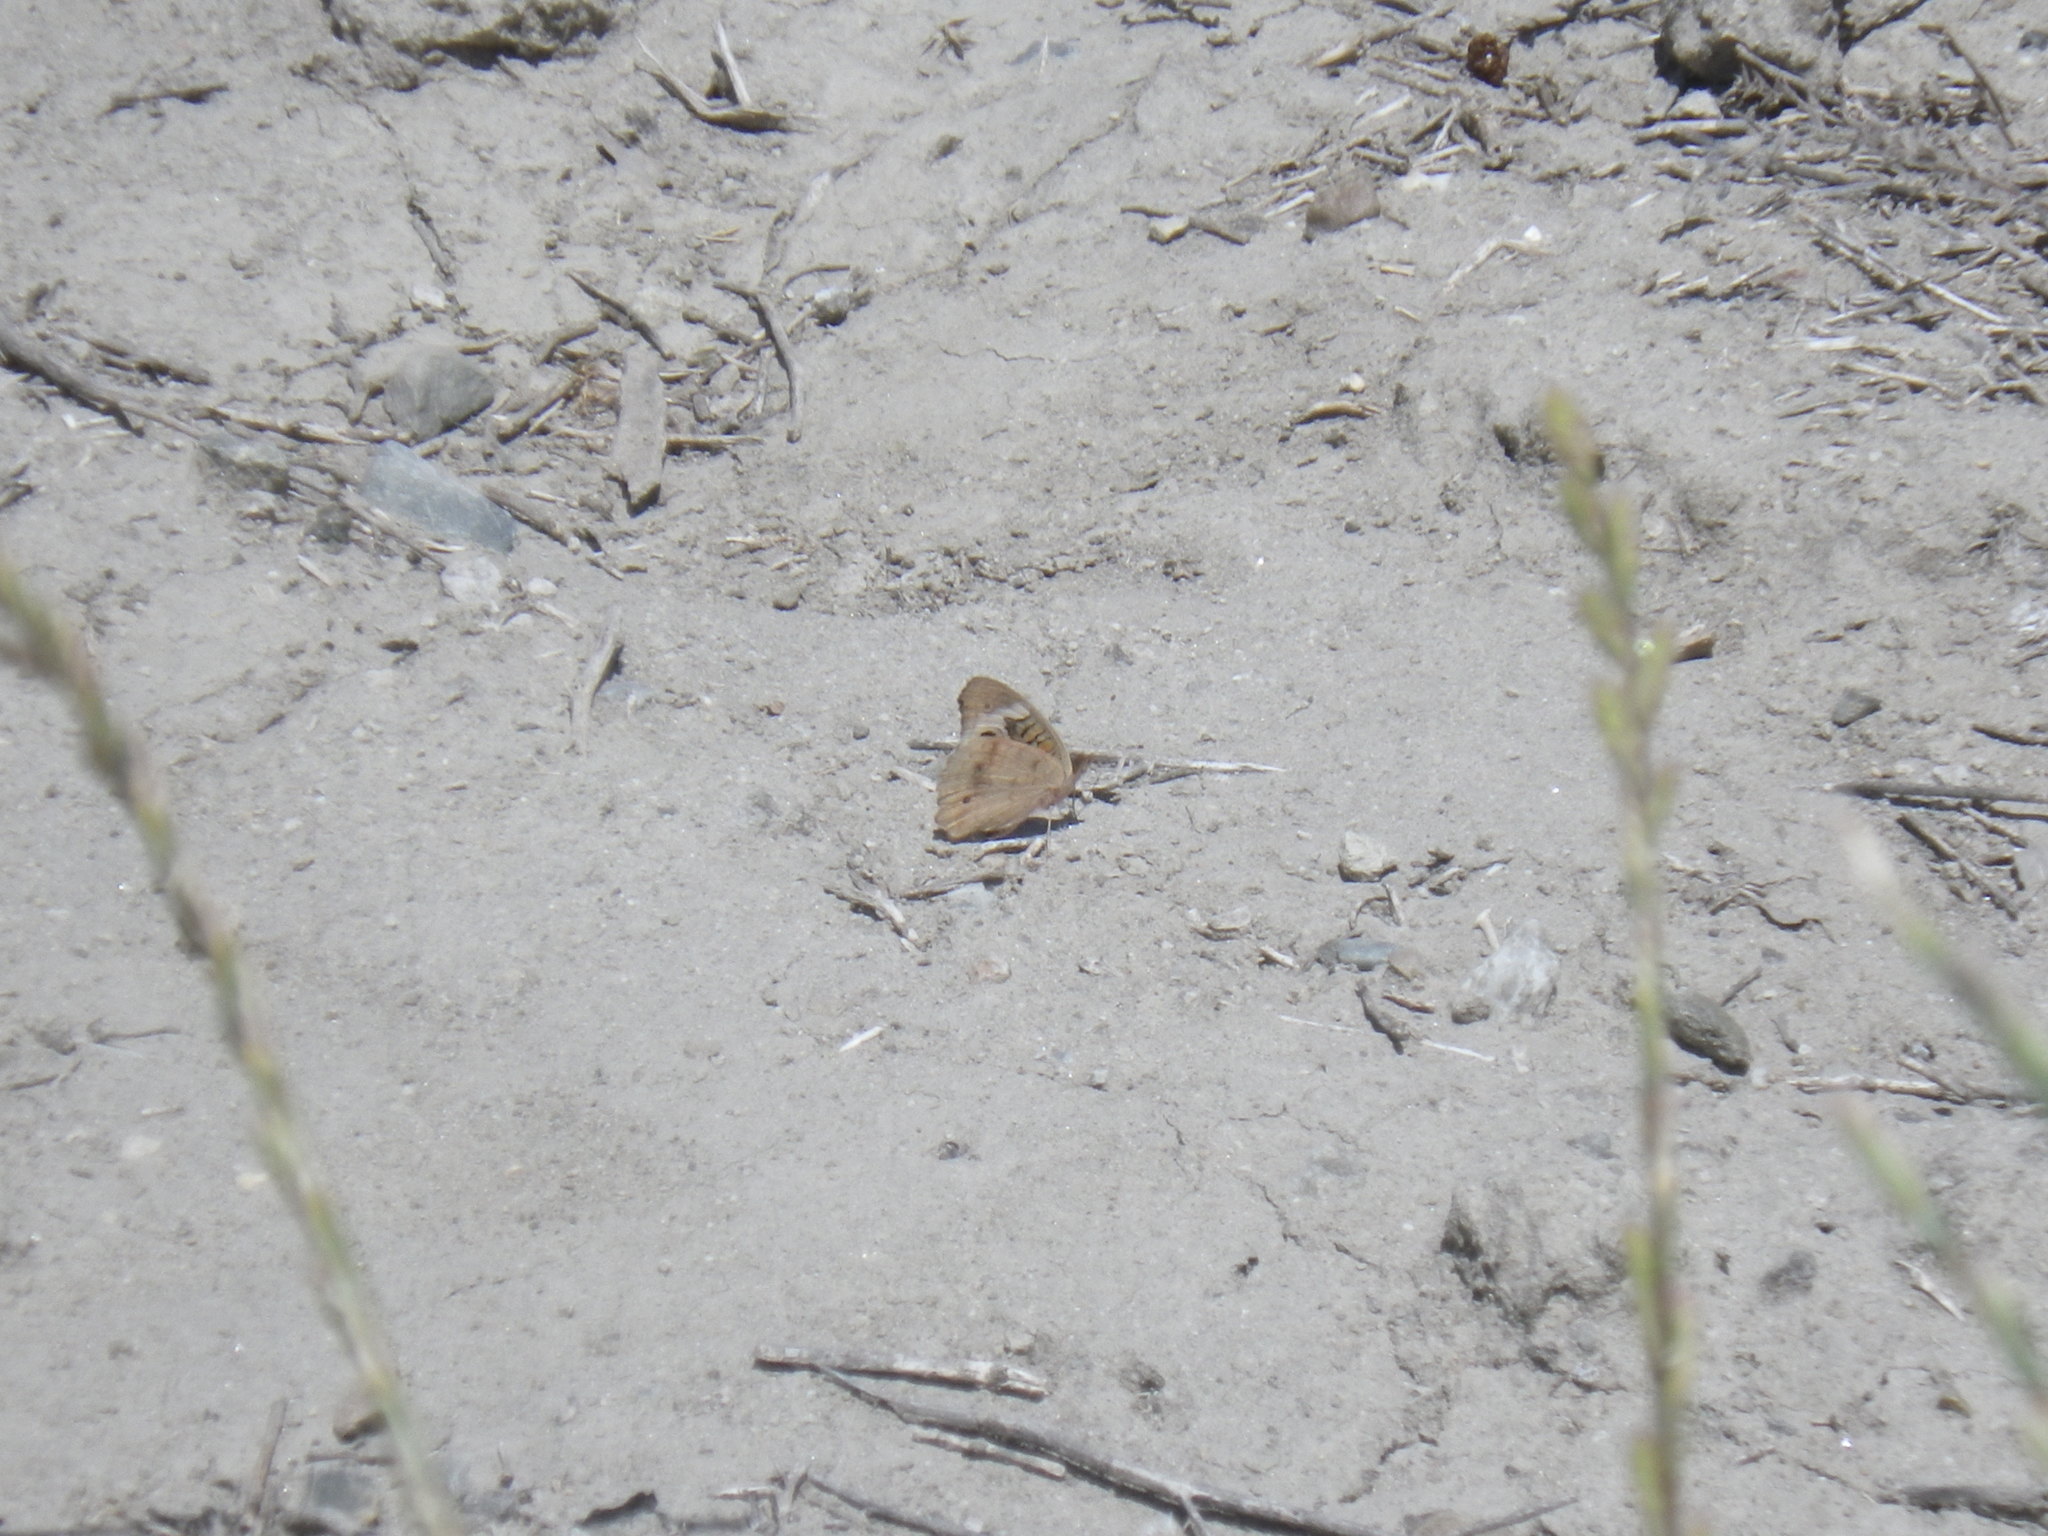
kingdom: Animalia
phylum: Arthropoda
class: Insecta
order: Lepidoptera
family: Nymphalidae
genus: Junonia
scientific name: Junonia grisea
